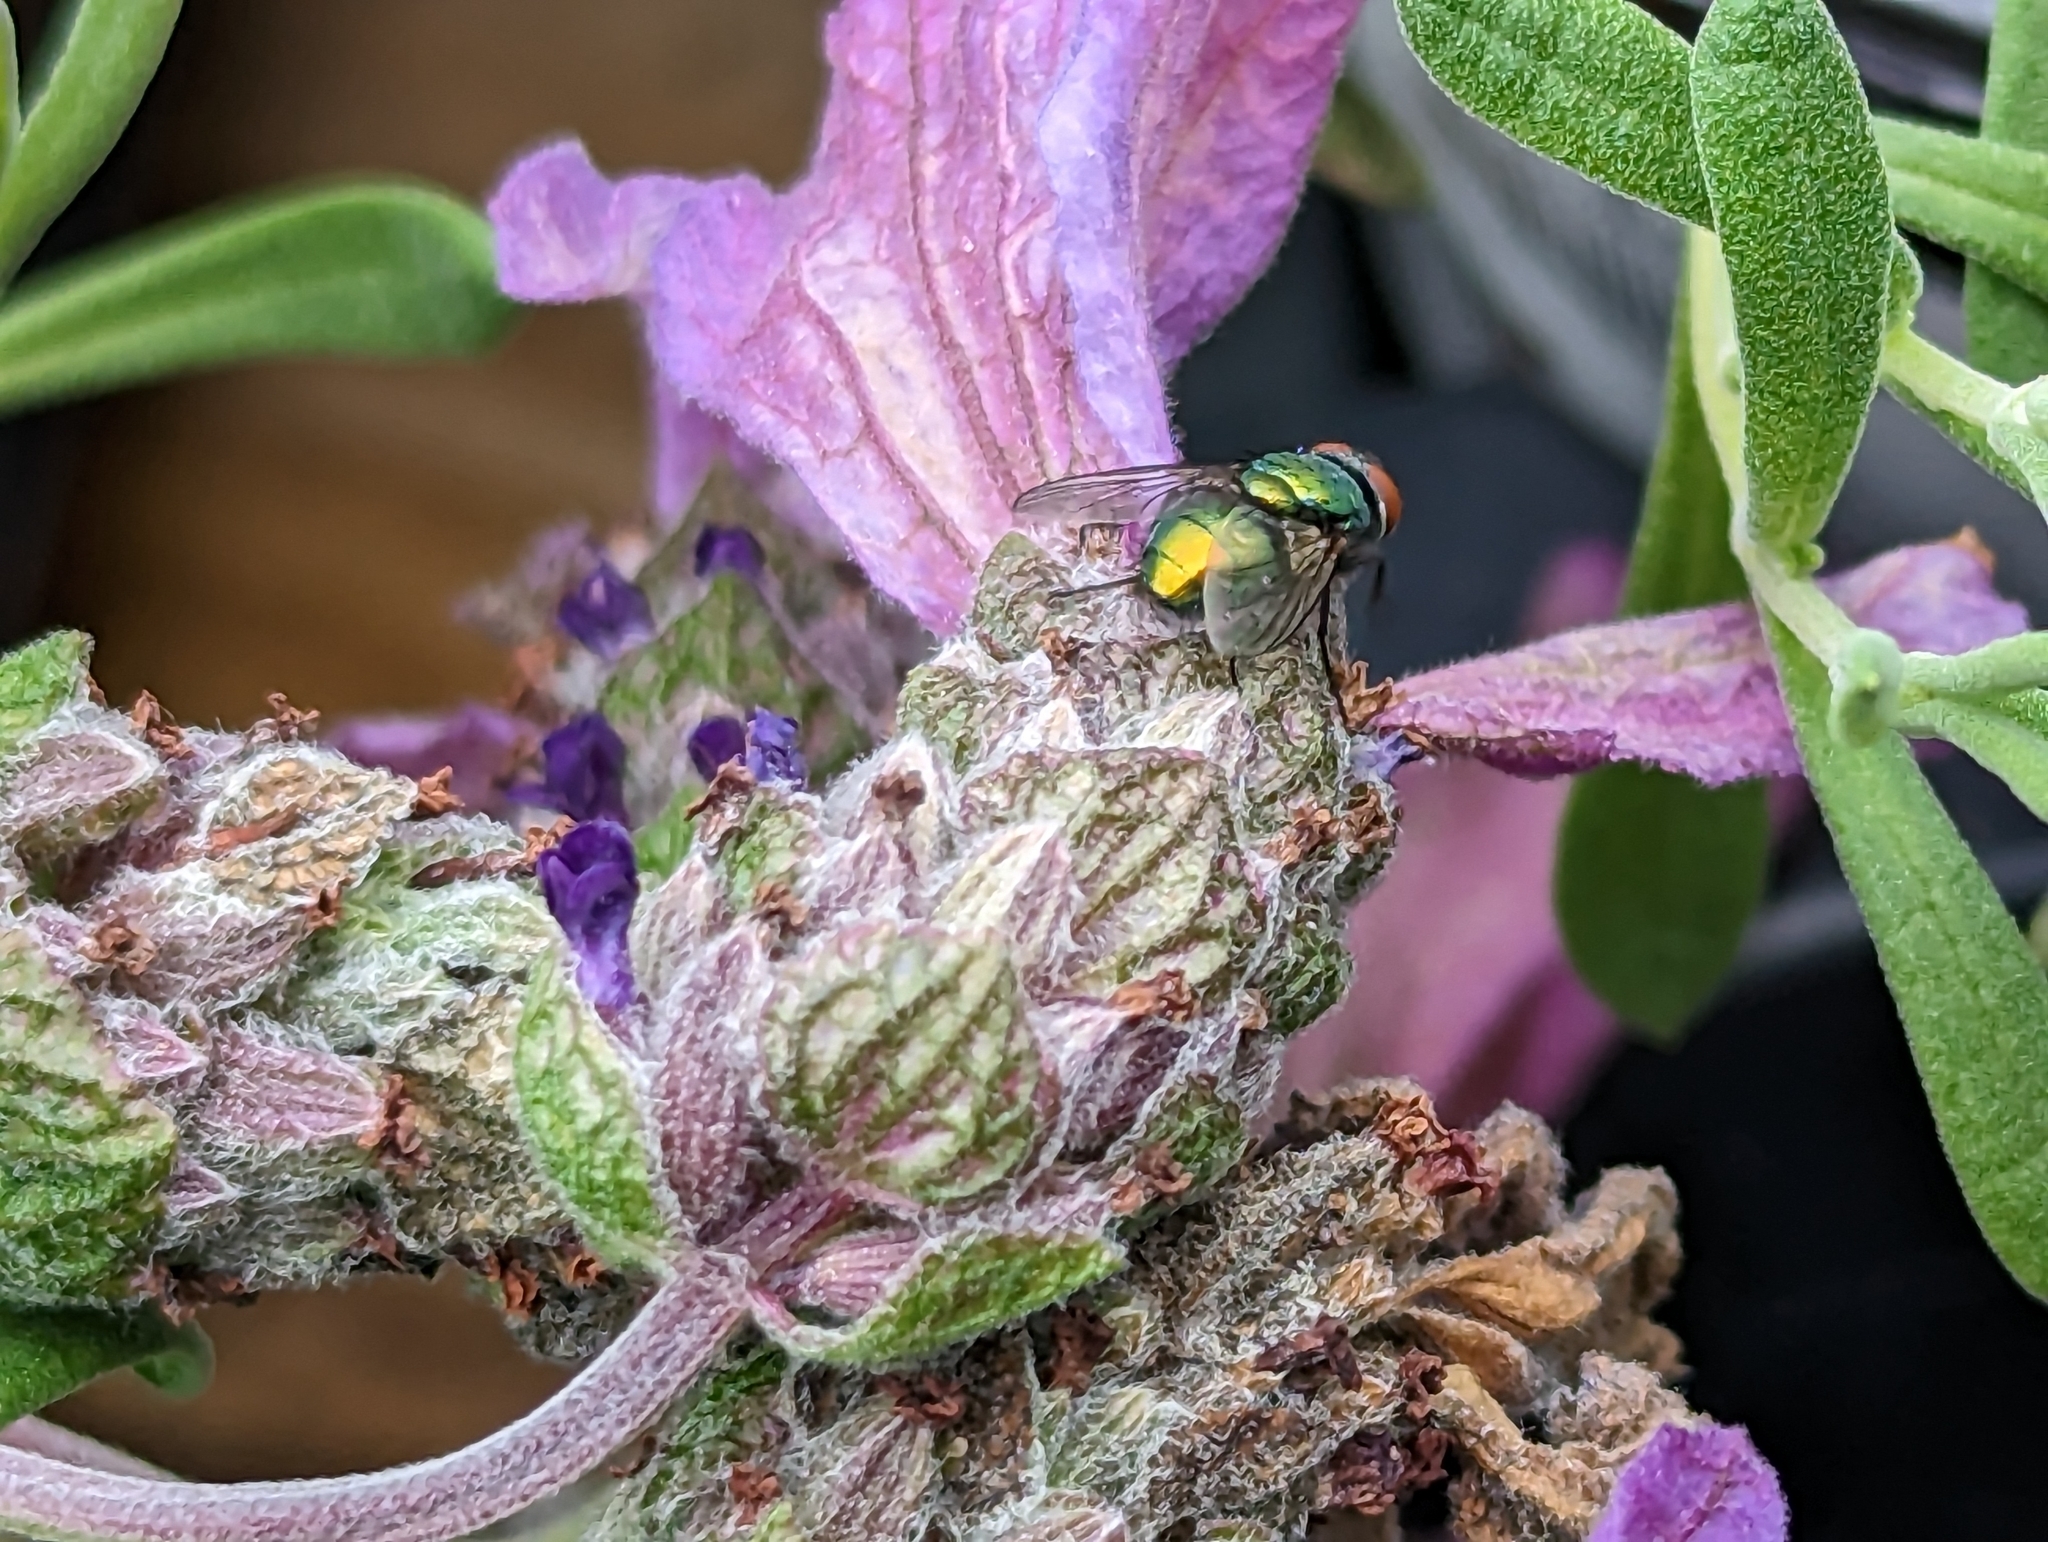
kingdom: Animalia
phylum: Arthropoda
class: Insecta
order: Diptera
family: Calliphoridae
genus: Lucilia
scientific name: Lucilia sericata
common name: Blow fly
